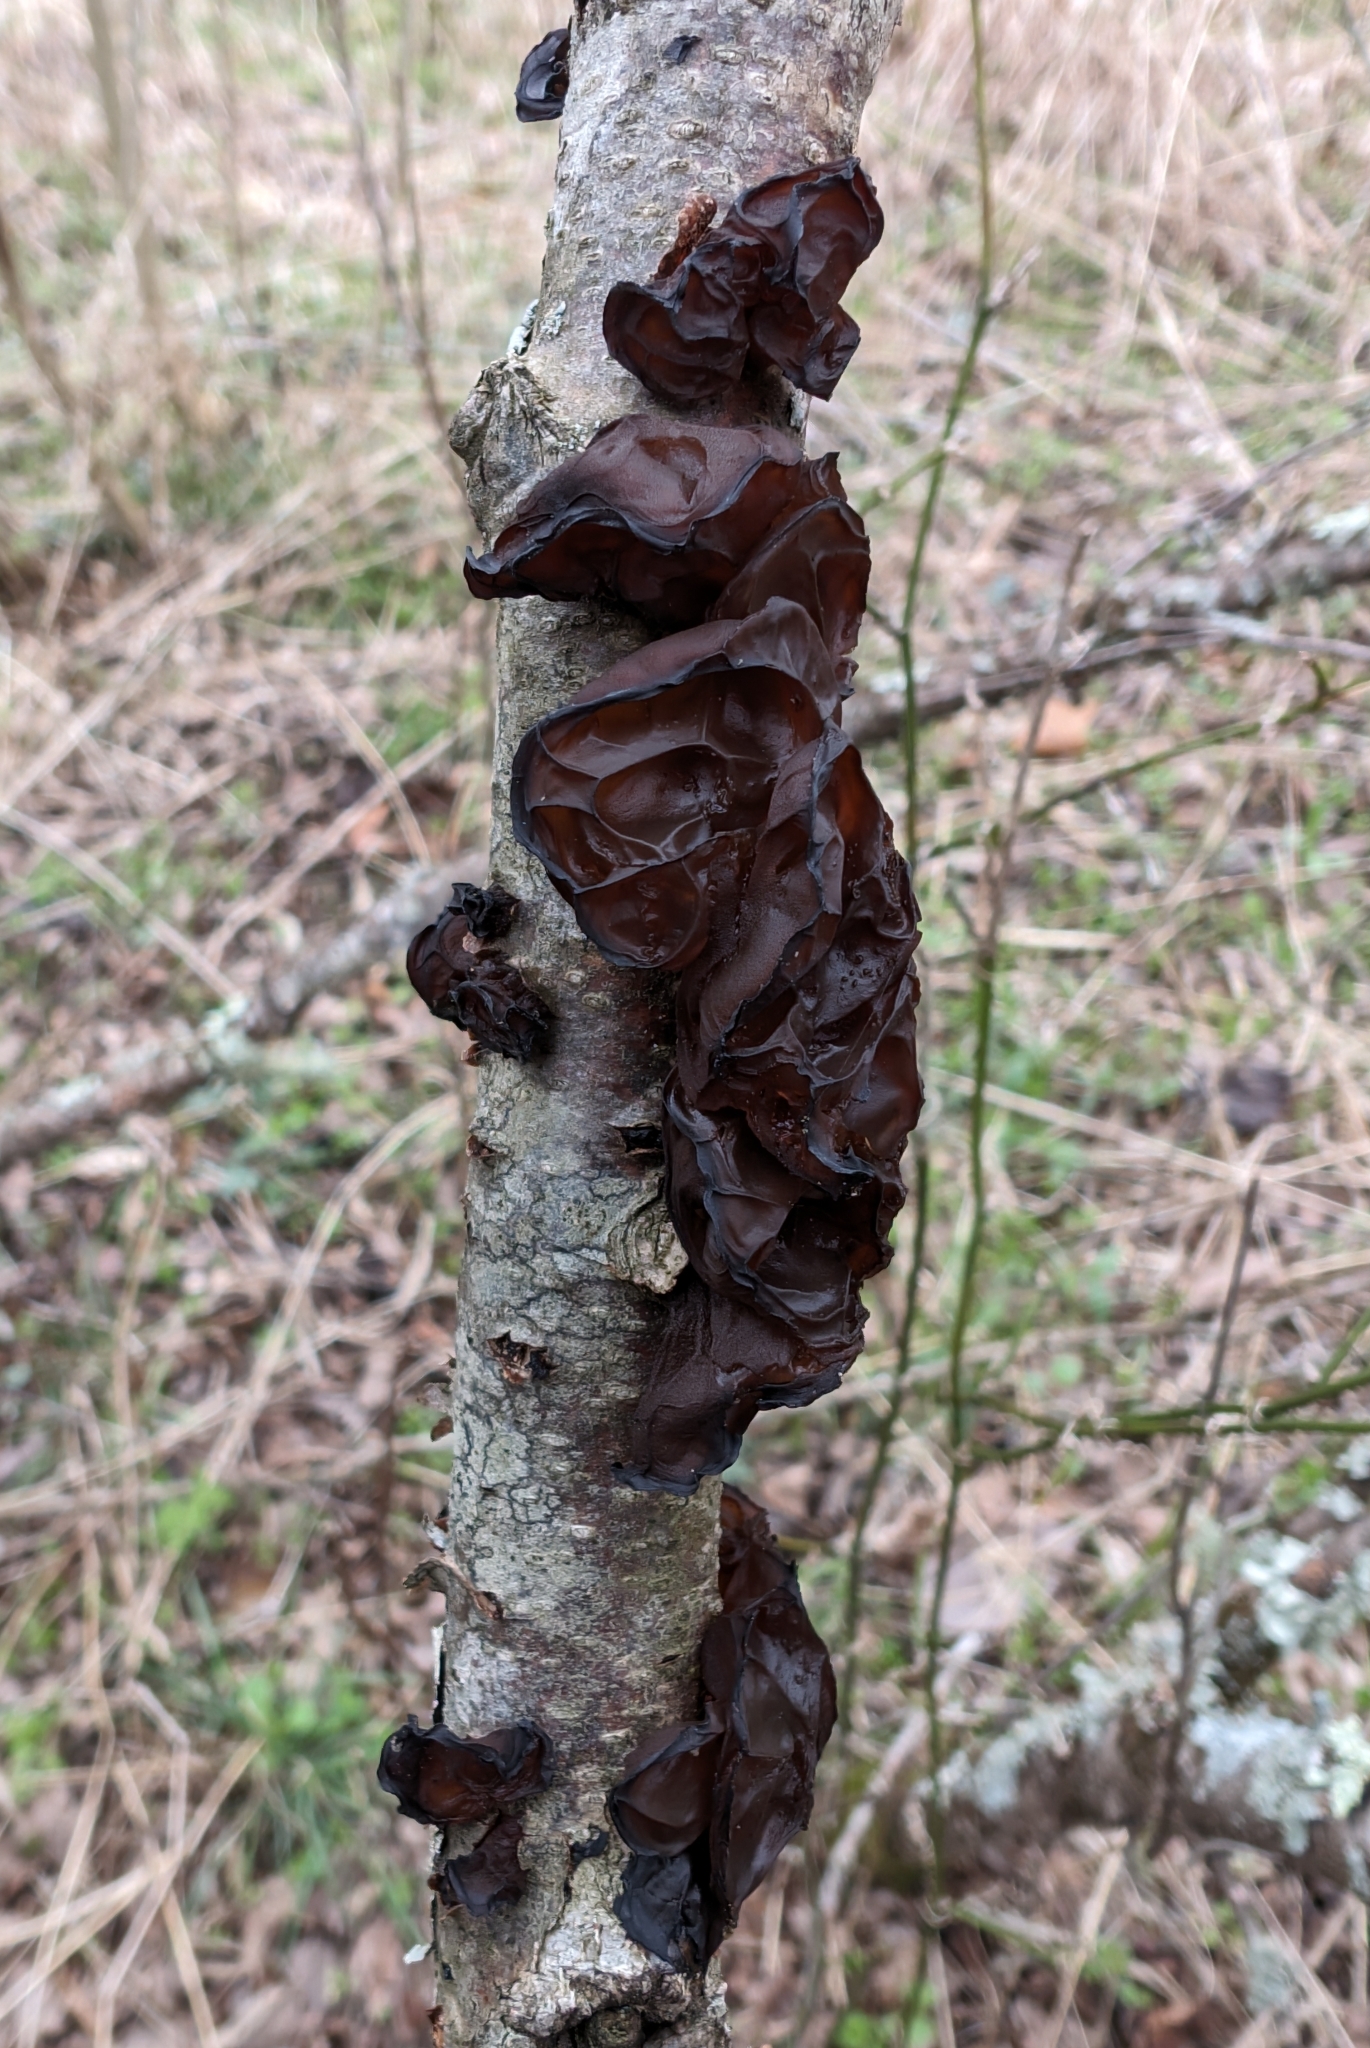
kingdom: Fungi
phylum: Basidiomycota
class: Agaricomycetes
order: Auriculariales
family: Auriculariaceae
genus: Exidia
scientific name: Exidia
